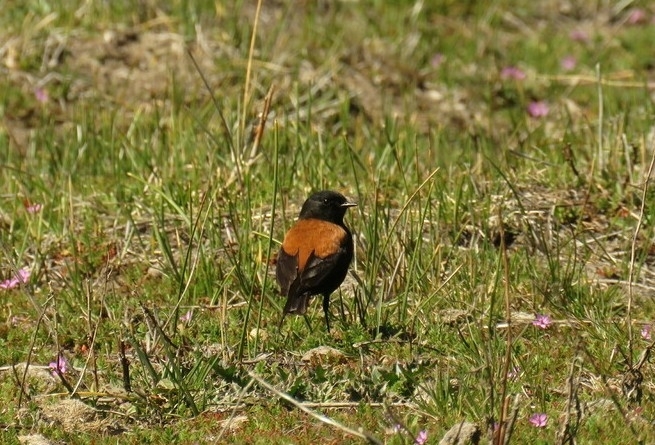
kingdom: Animalia
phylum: Chordata
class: Aves
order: Passeriformes
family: Tyrannidae
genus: Lessonia
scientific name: Lessonia rufa
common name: Austral negrito
